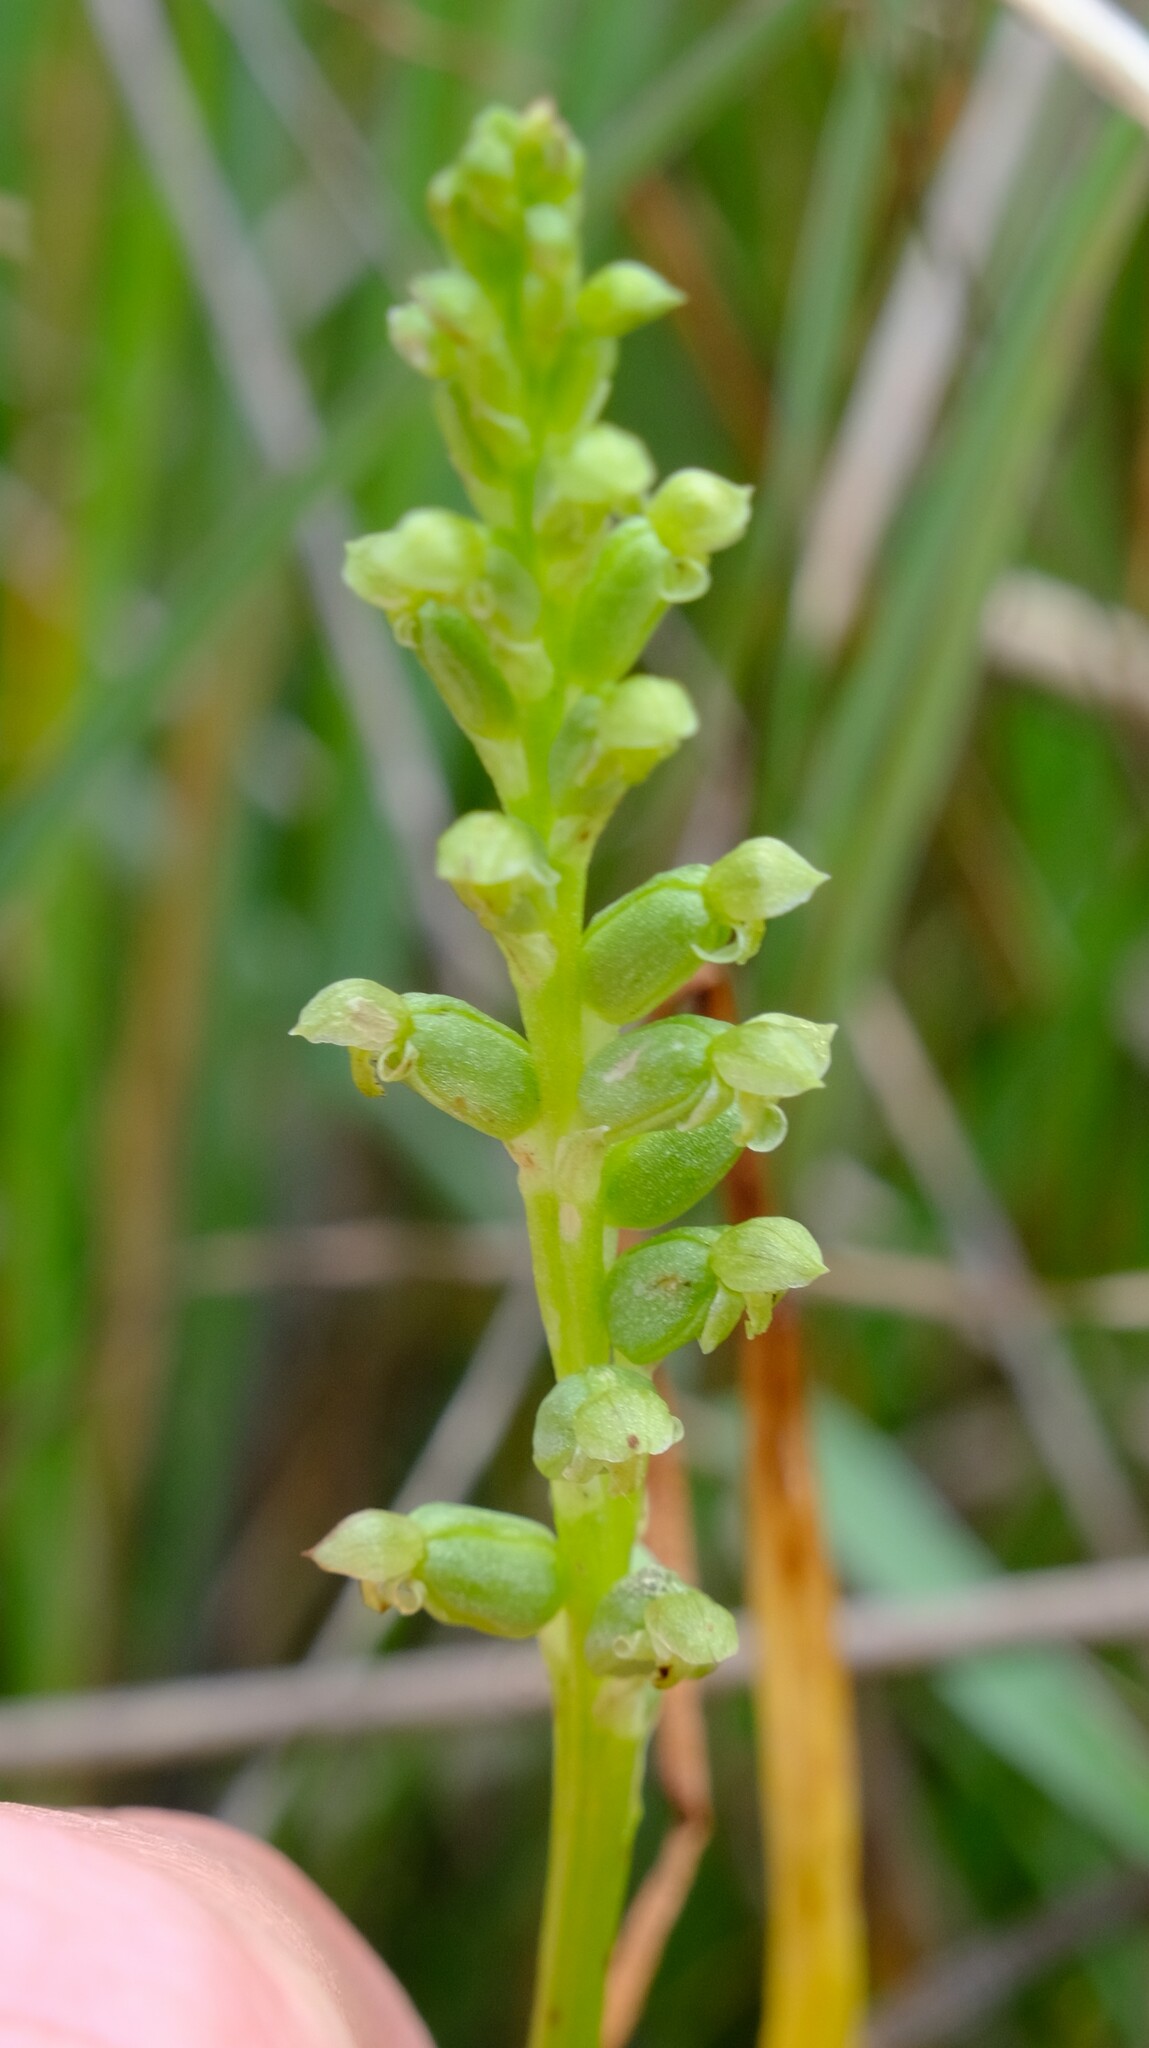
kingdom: Plantae
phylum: Tracheophyta
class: Liliopsida
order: Asparagales
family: Orchidaceae
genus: Microtis
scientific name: Microtis unifolia
